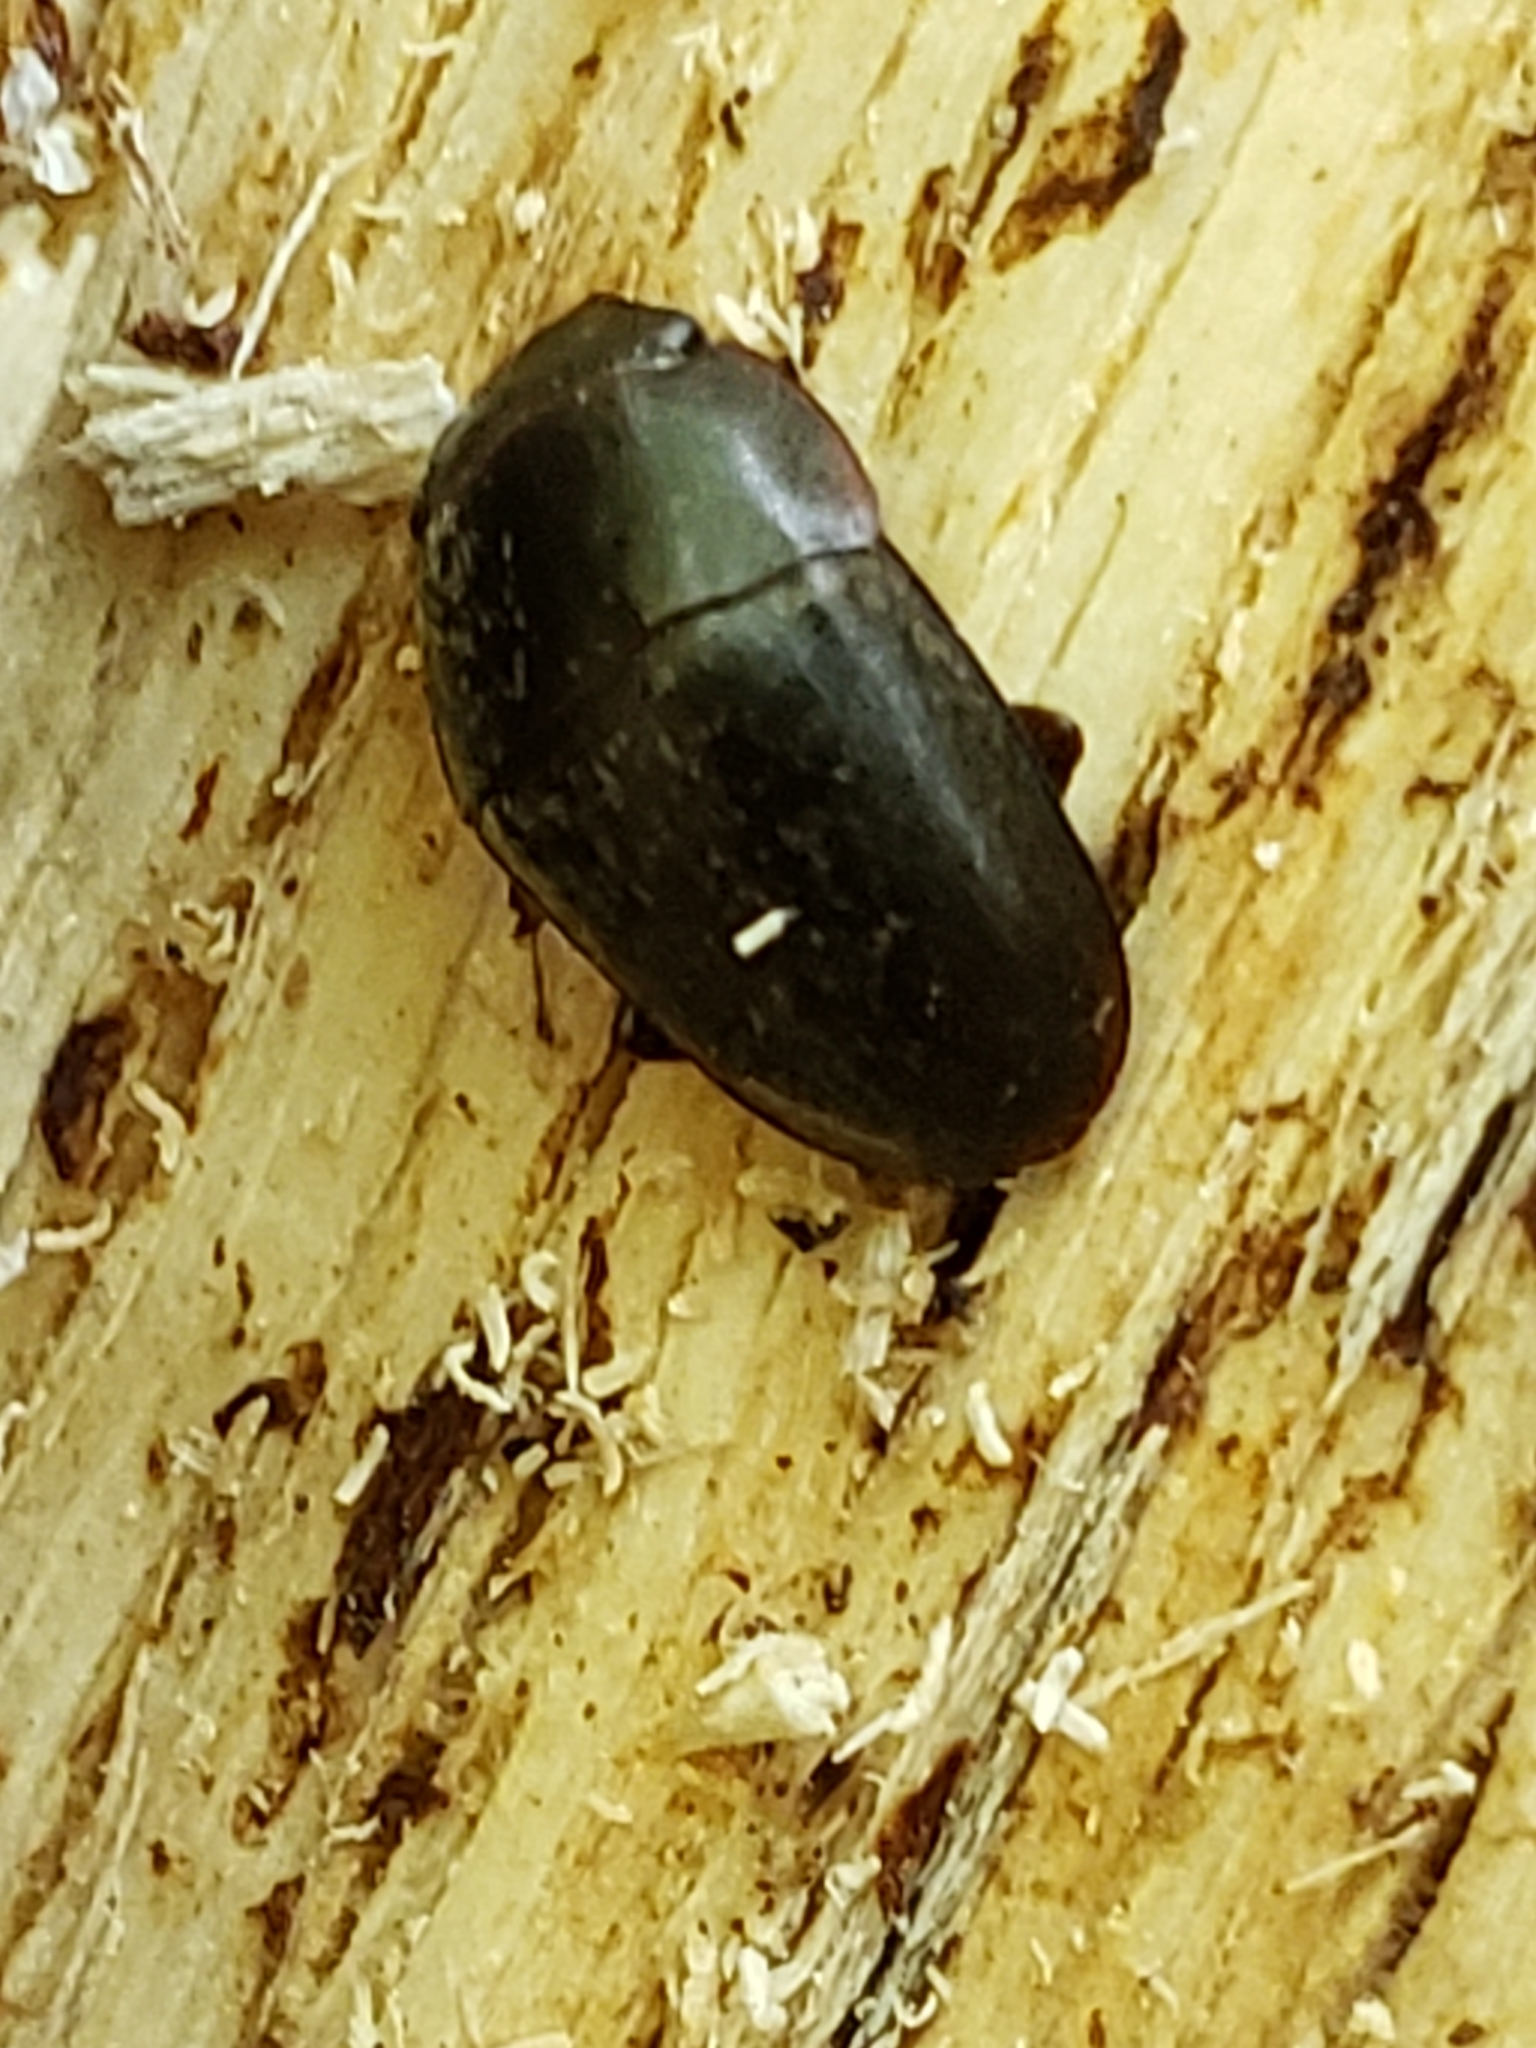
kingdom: Animalia
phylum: Arthropoda
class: Insecta
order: Coleoptera
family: Nitidulidae
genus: Cryptarcha
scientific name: Cryptarcha ampla
